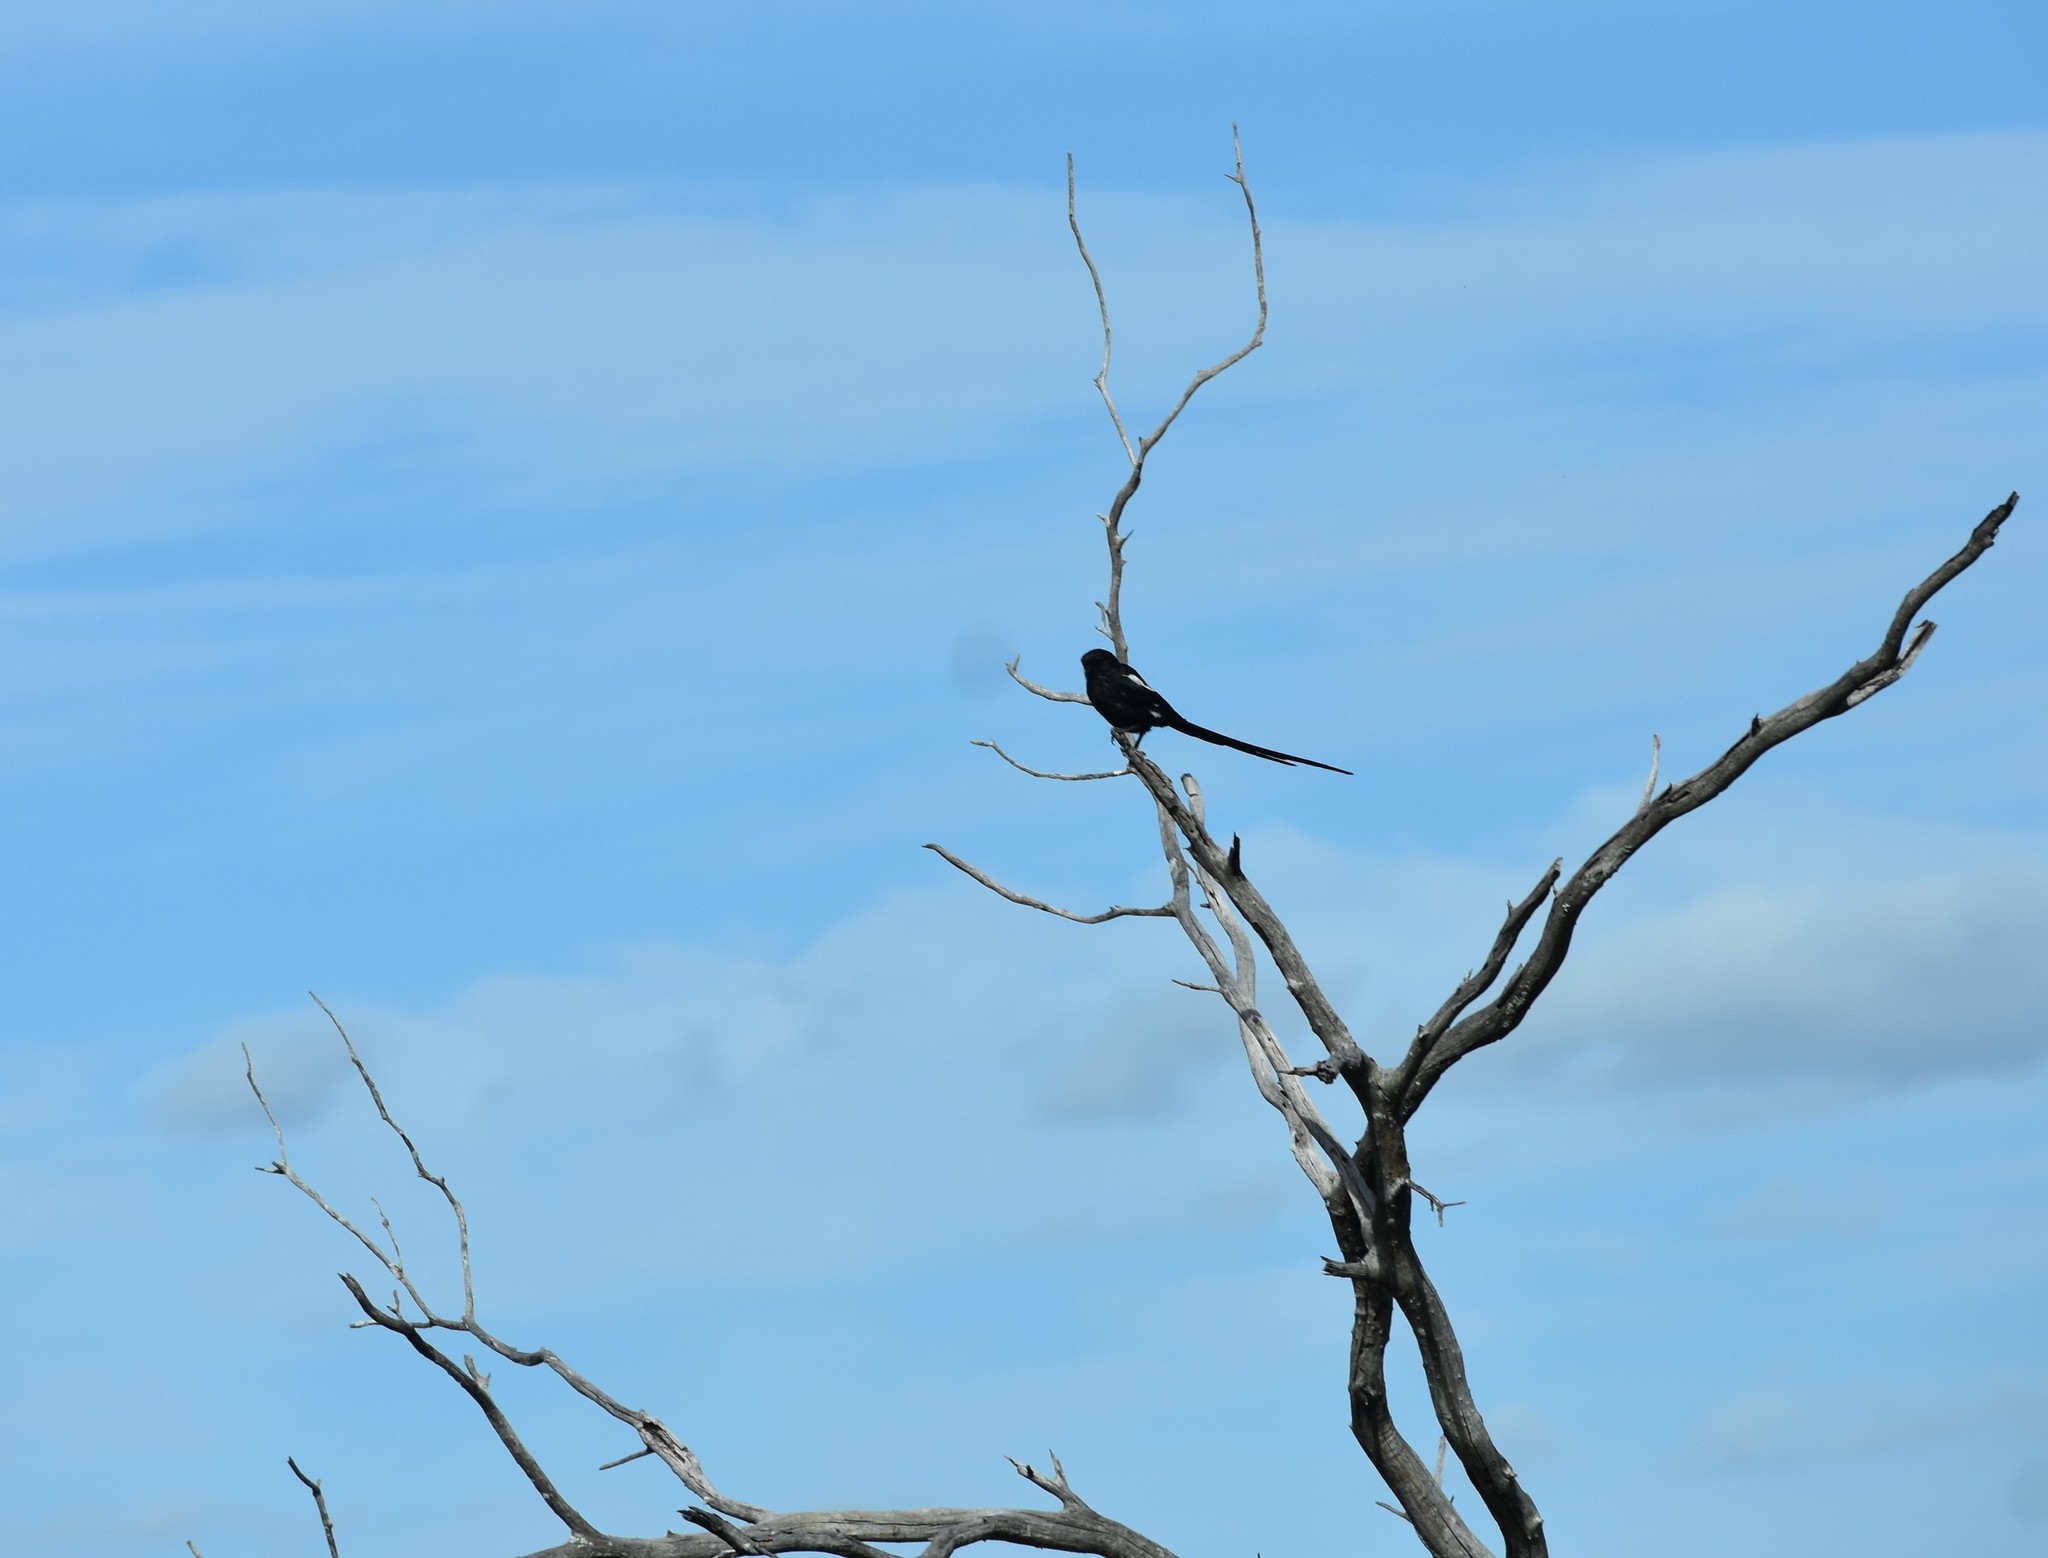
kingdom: Animalia
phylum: Chordata
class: Aves
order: Passeriformes
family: Laniidae
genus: Urolestes
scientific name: Urolestes melanoleucus
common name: Magpie shrike
